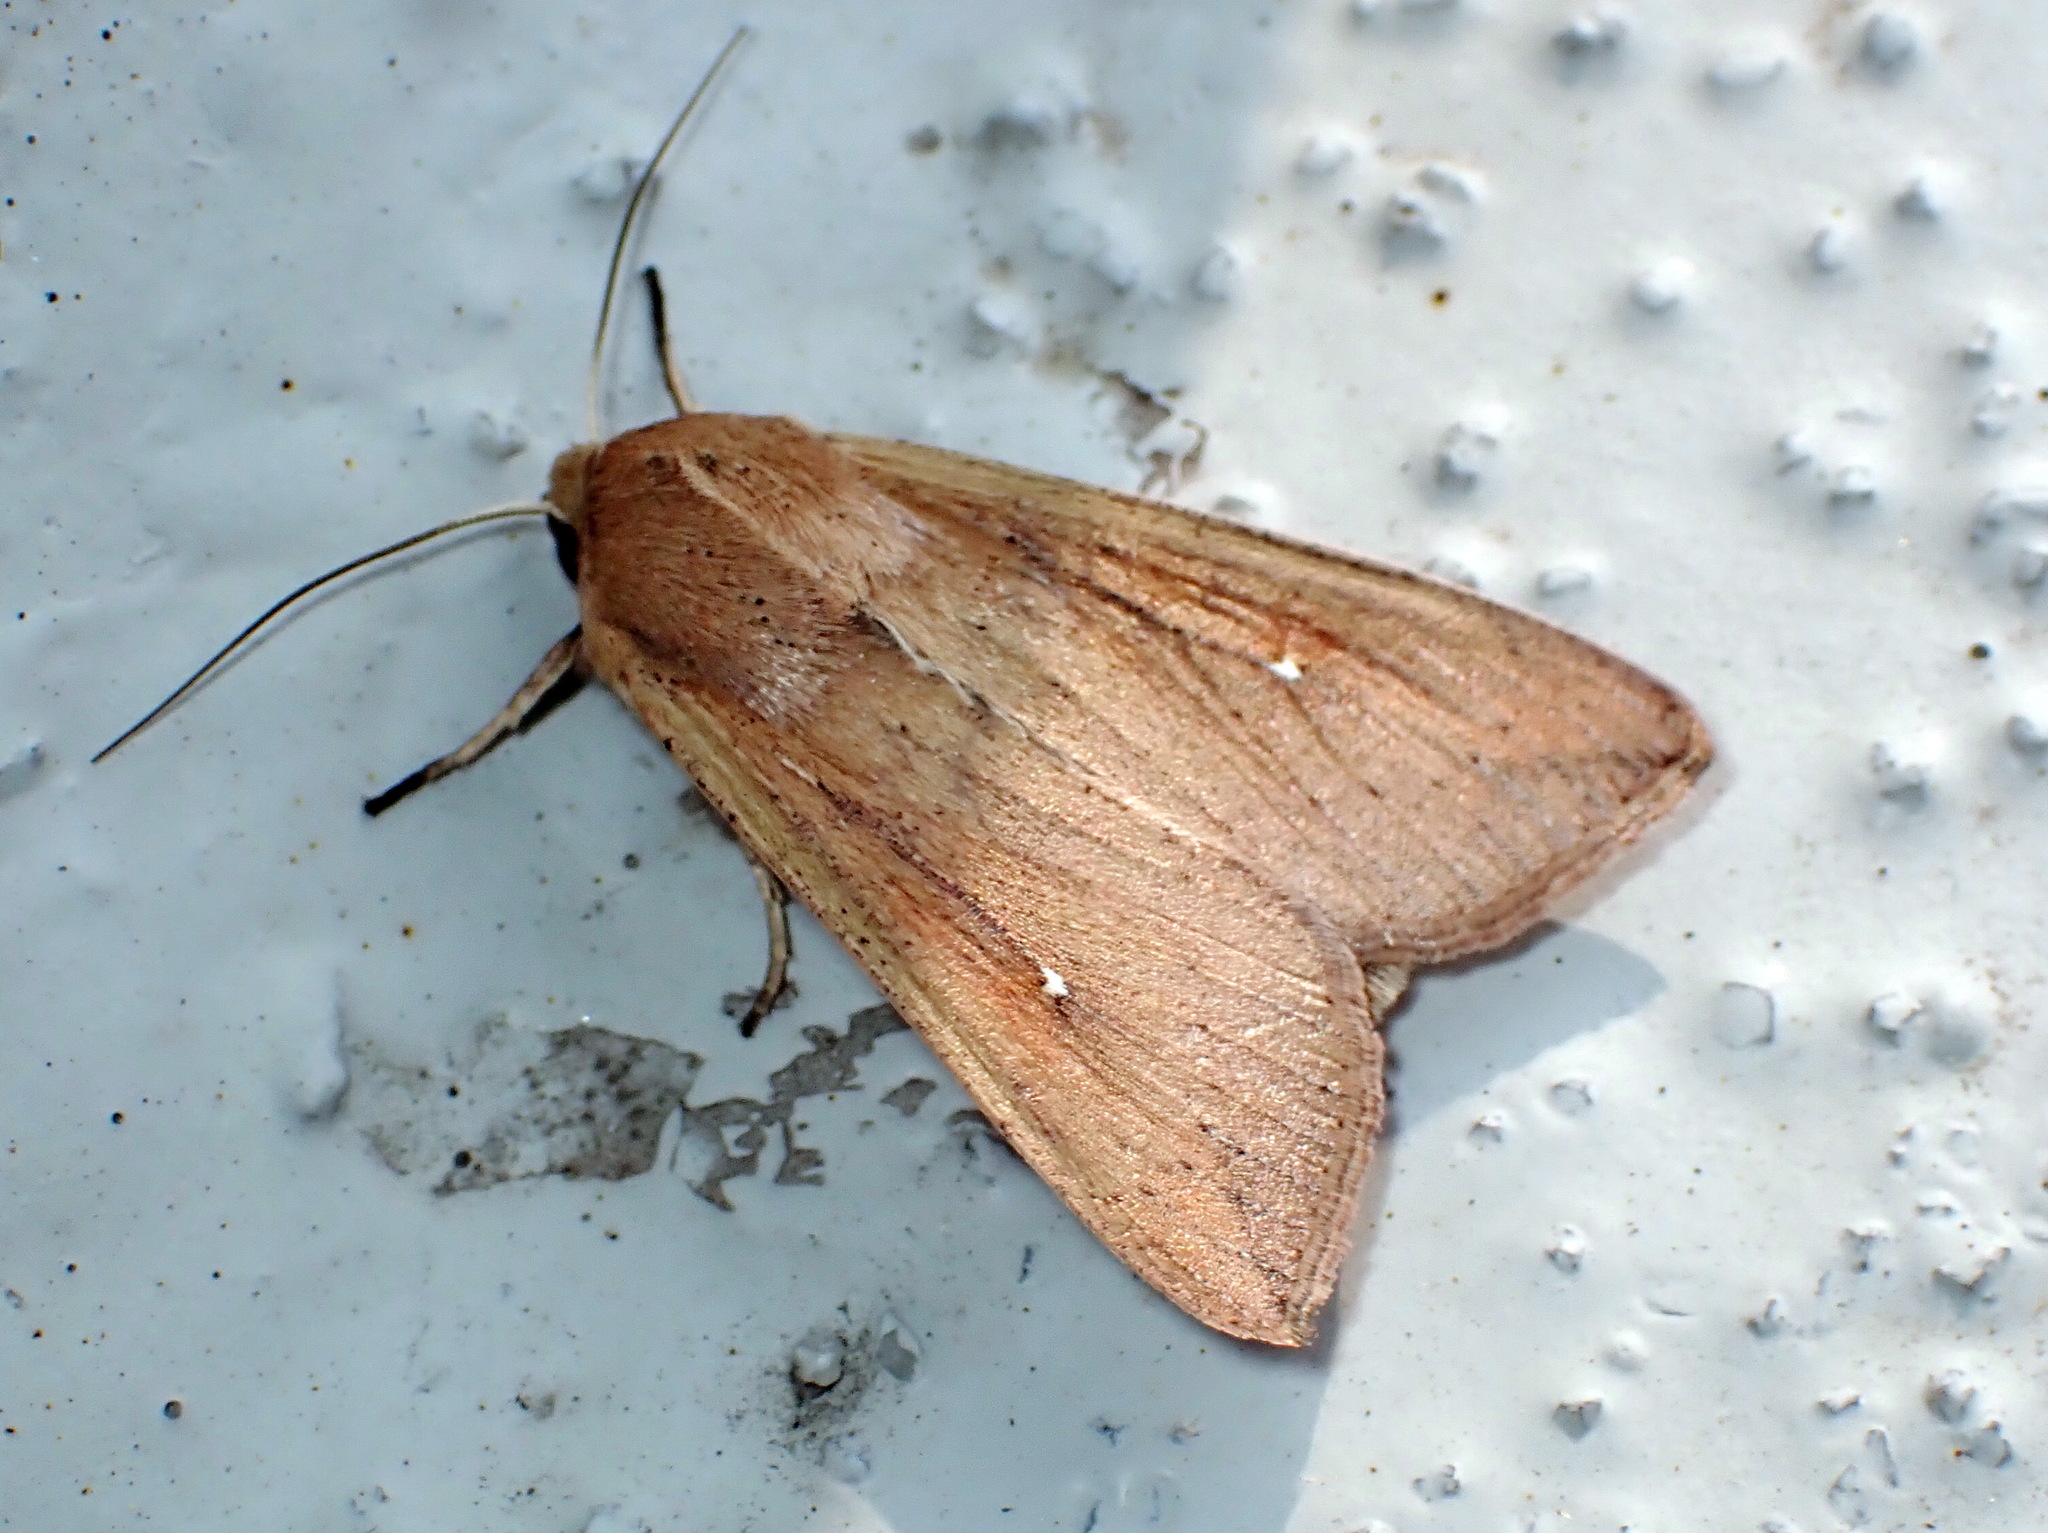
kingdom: Animalia
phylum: Arthropoda
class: Insecta
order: Lepidoptera
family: Noctuidae
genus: Mythimna
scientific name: Mythimna unipuncta
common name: White-speck
